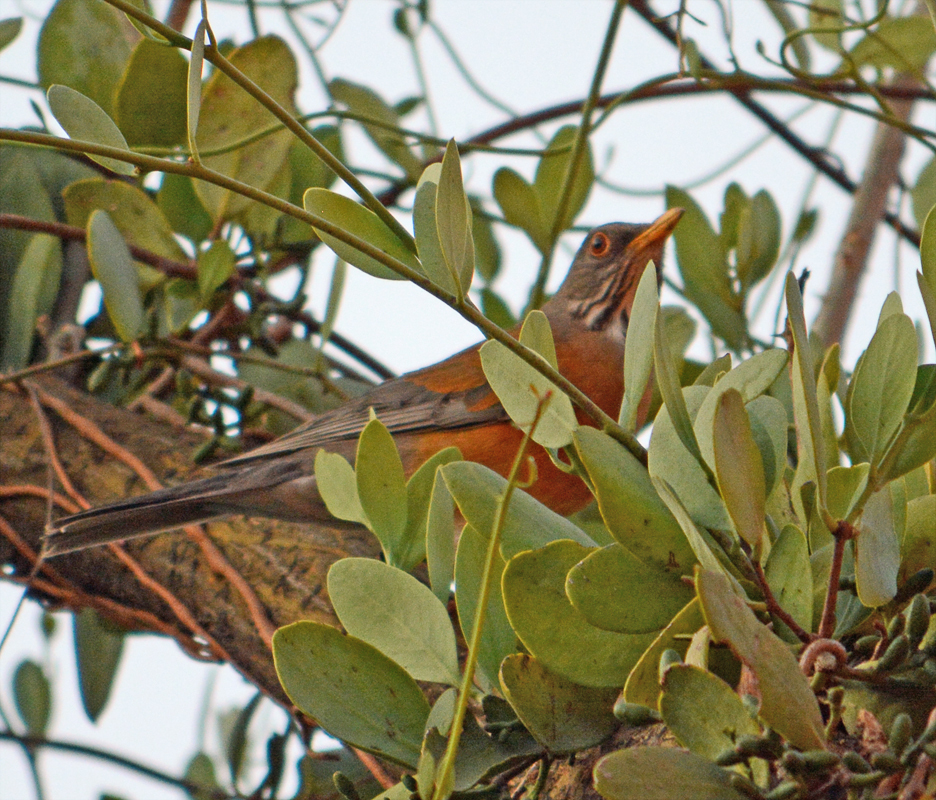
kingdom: Animalia
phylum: Chordata
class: Aves
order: Passeriformes
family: Turdidae
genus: Turdus
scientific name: Turdus rufopalliatus
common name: Rufous-backed robin
